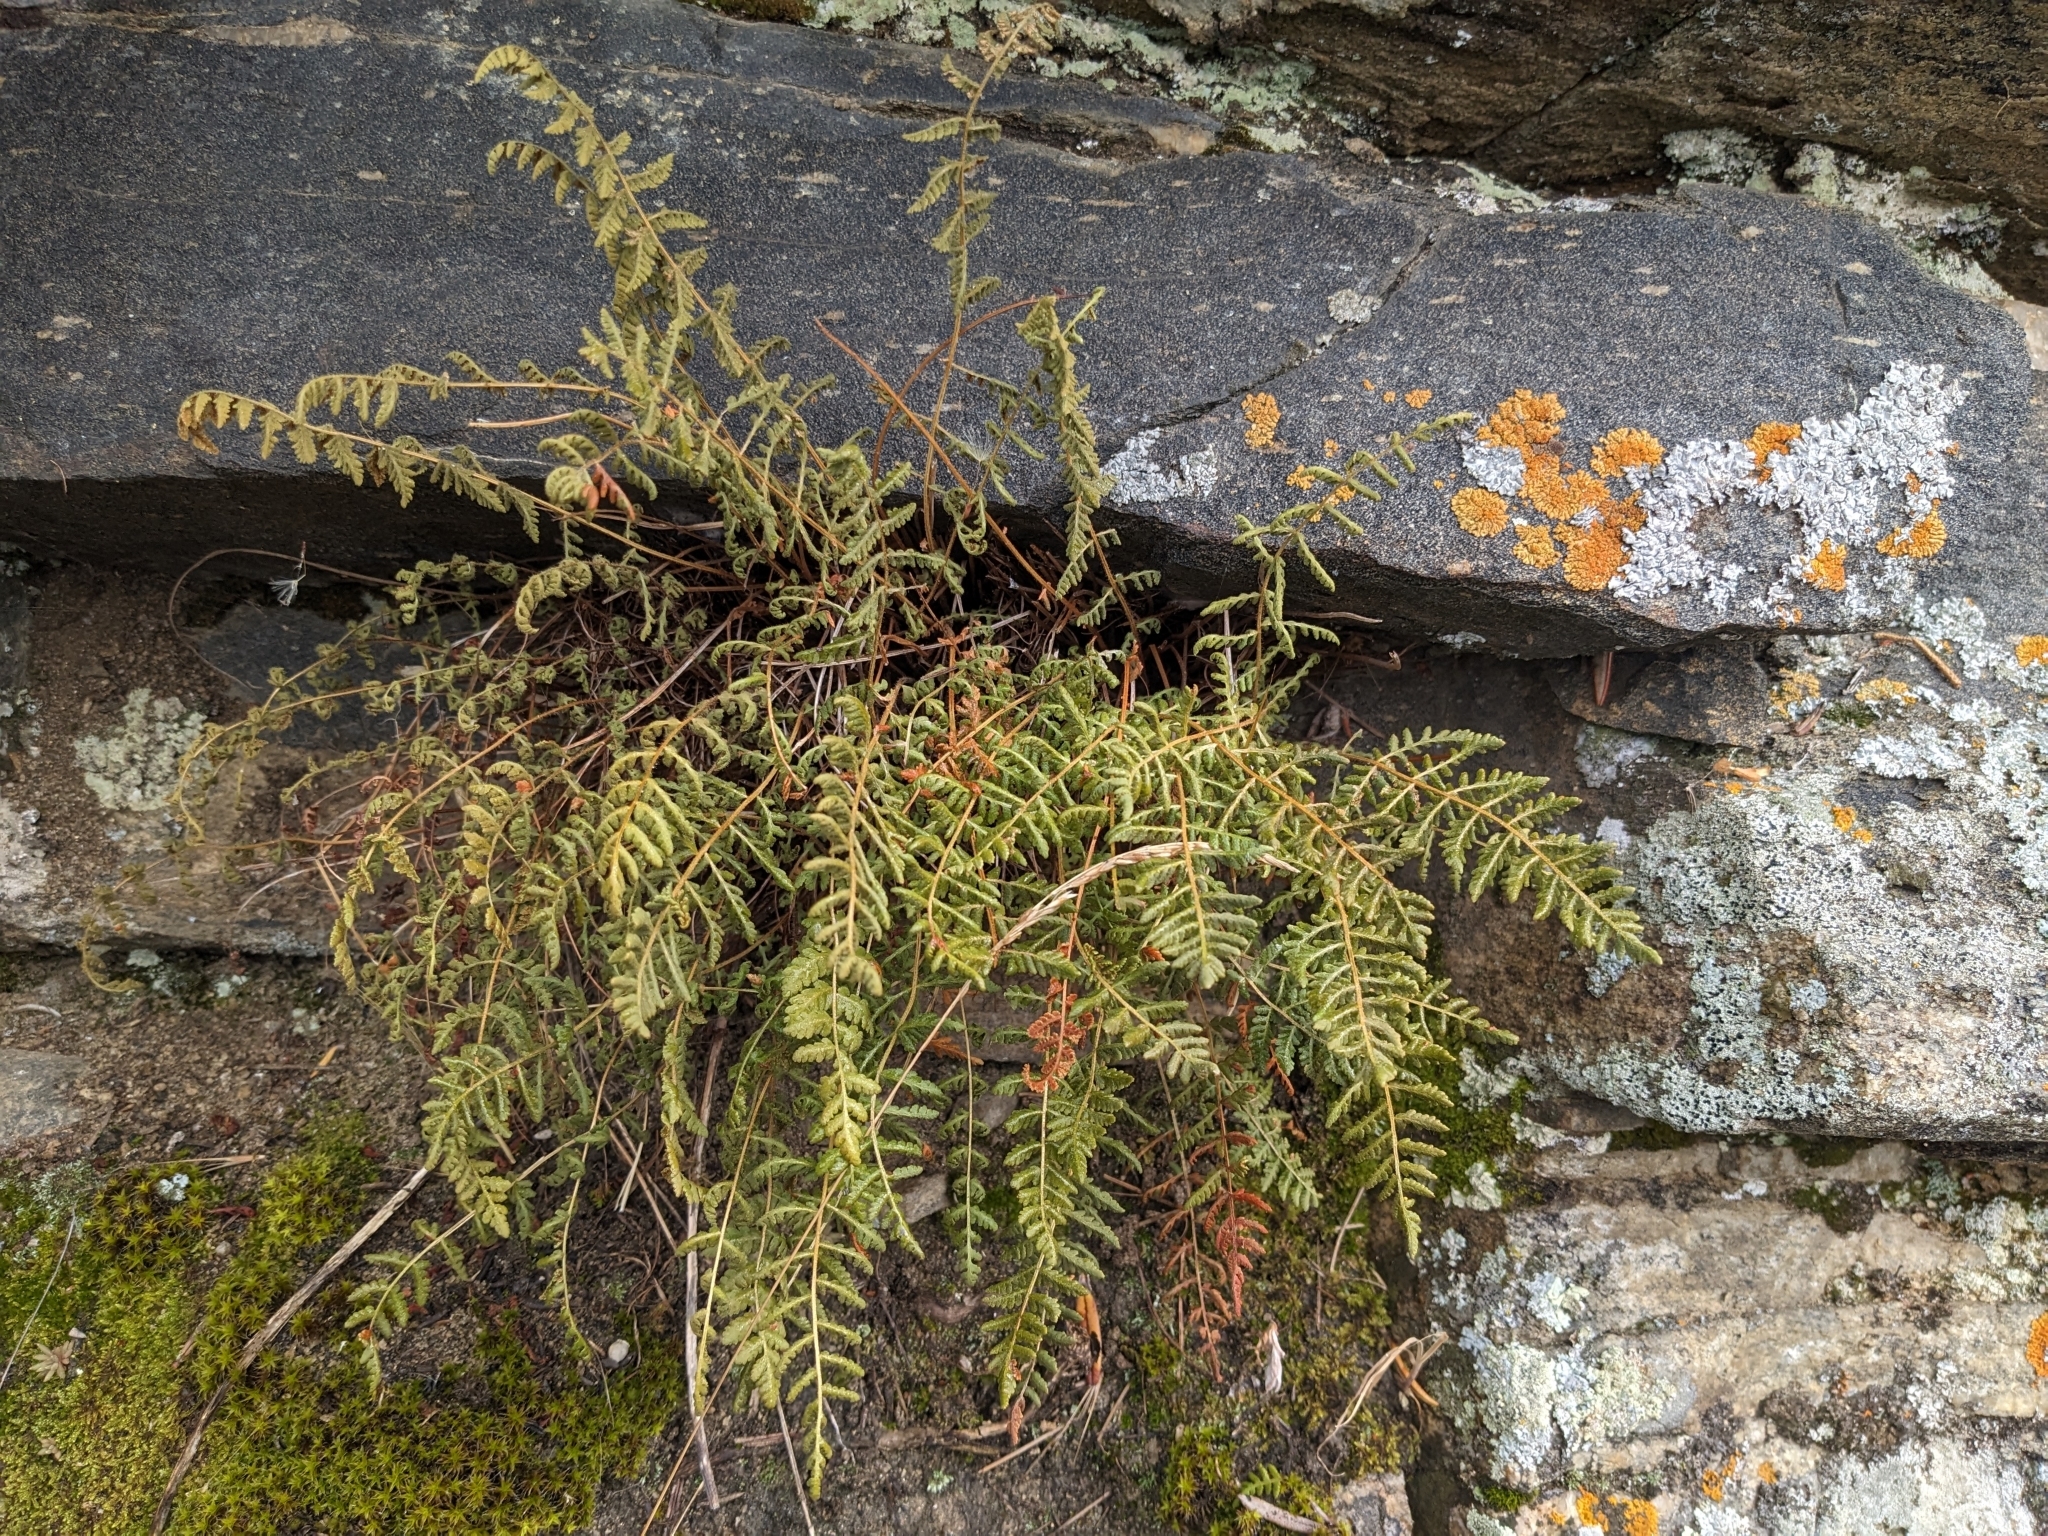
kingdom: Plantae
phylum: Tracheophyta
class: Polypodiopsida
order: Polypodiales
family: Woodsiaceae
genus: Physematium
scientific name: Physematium scopulinum
